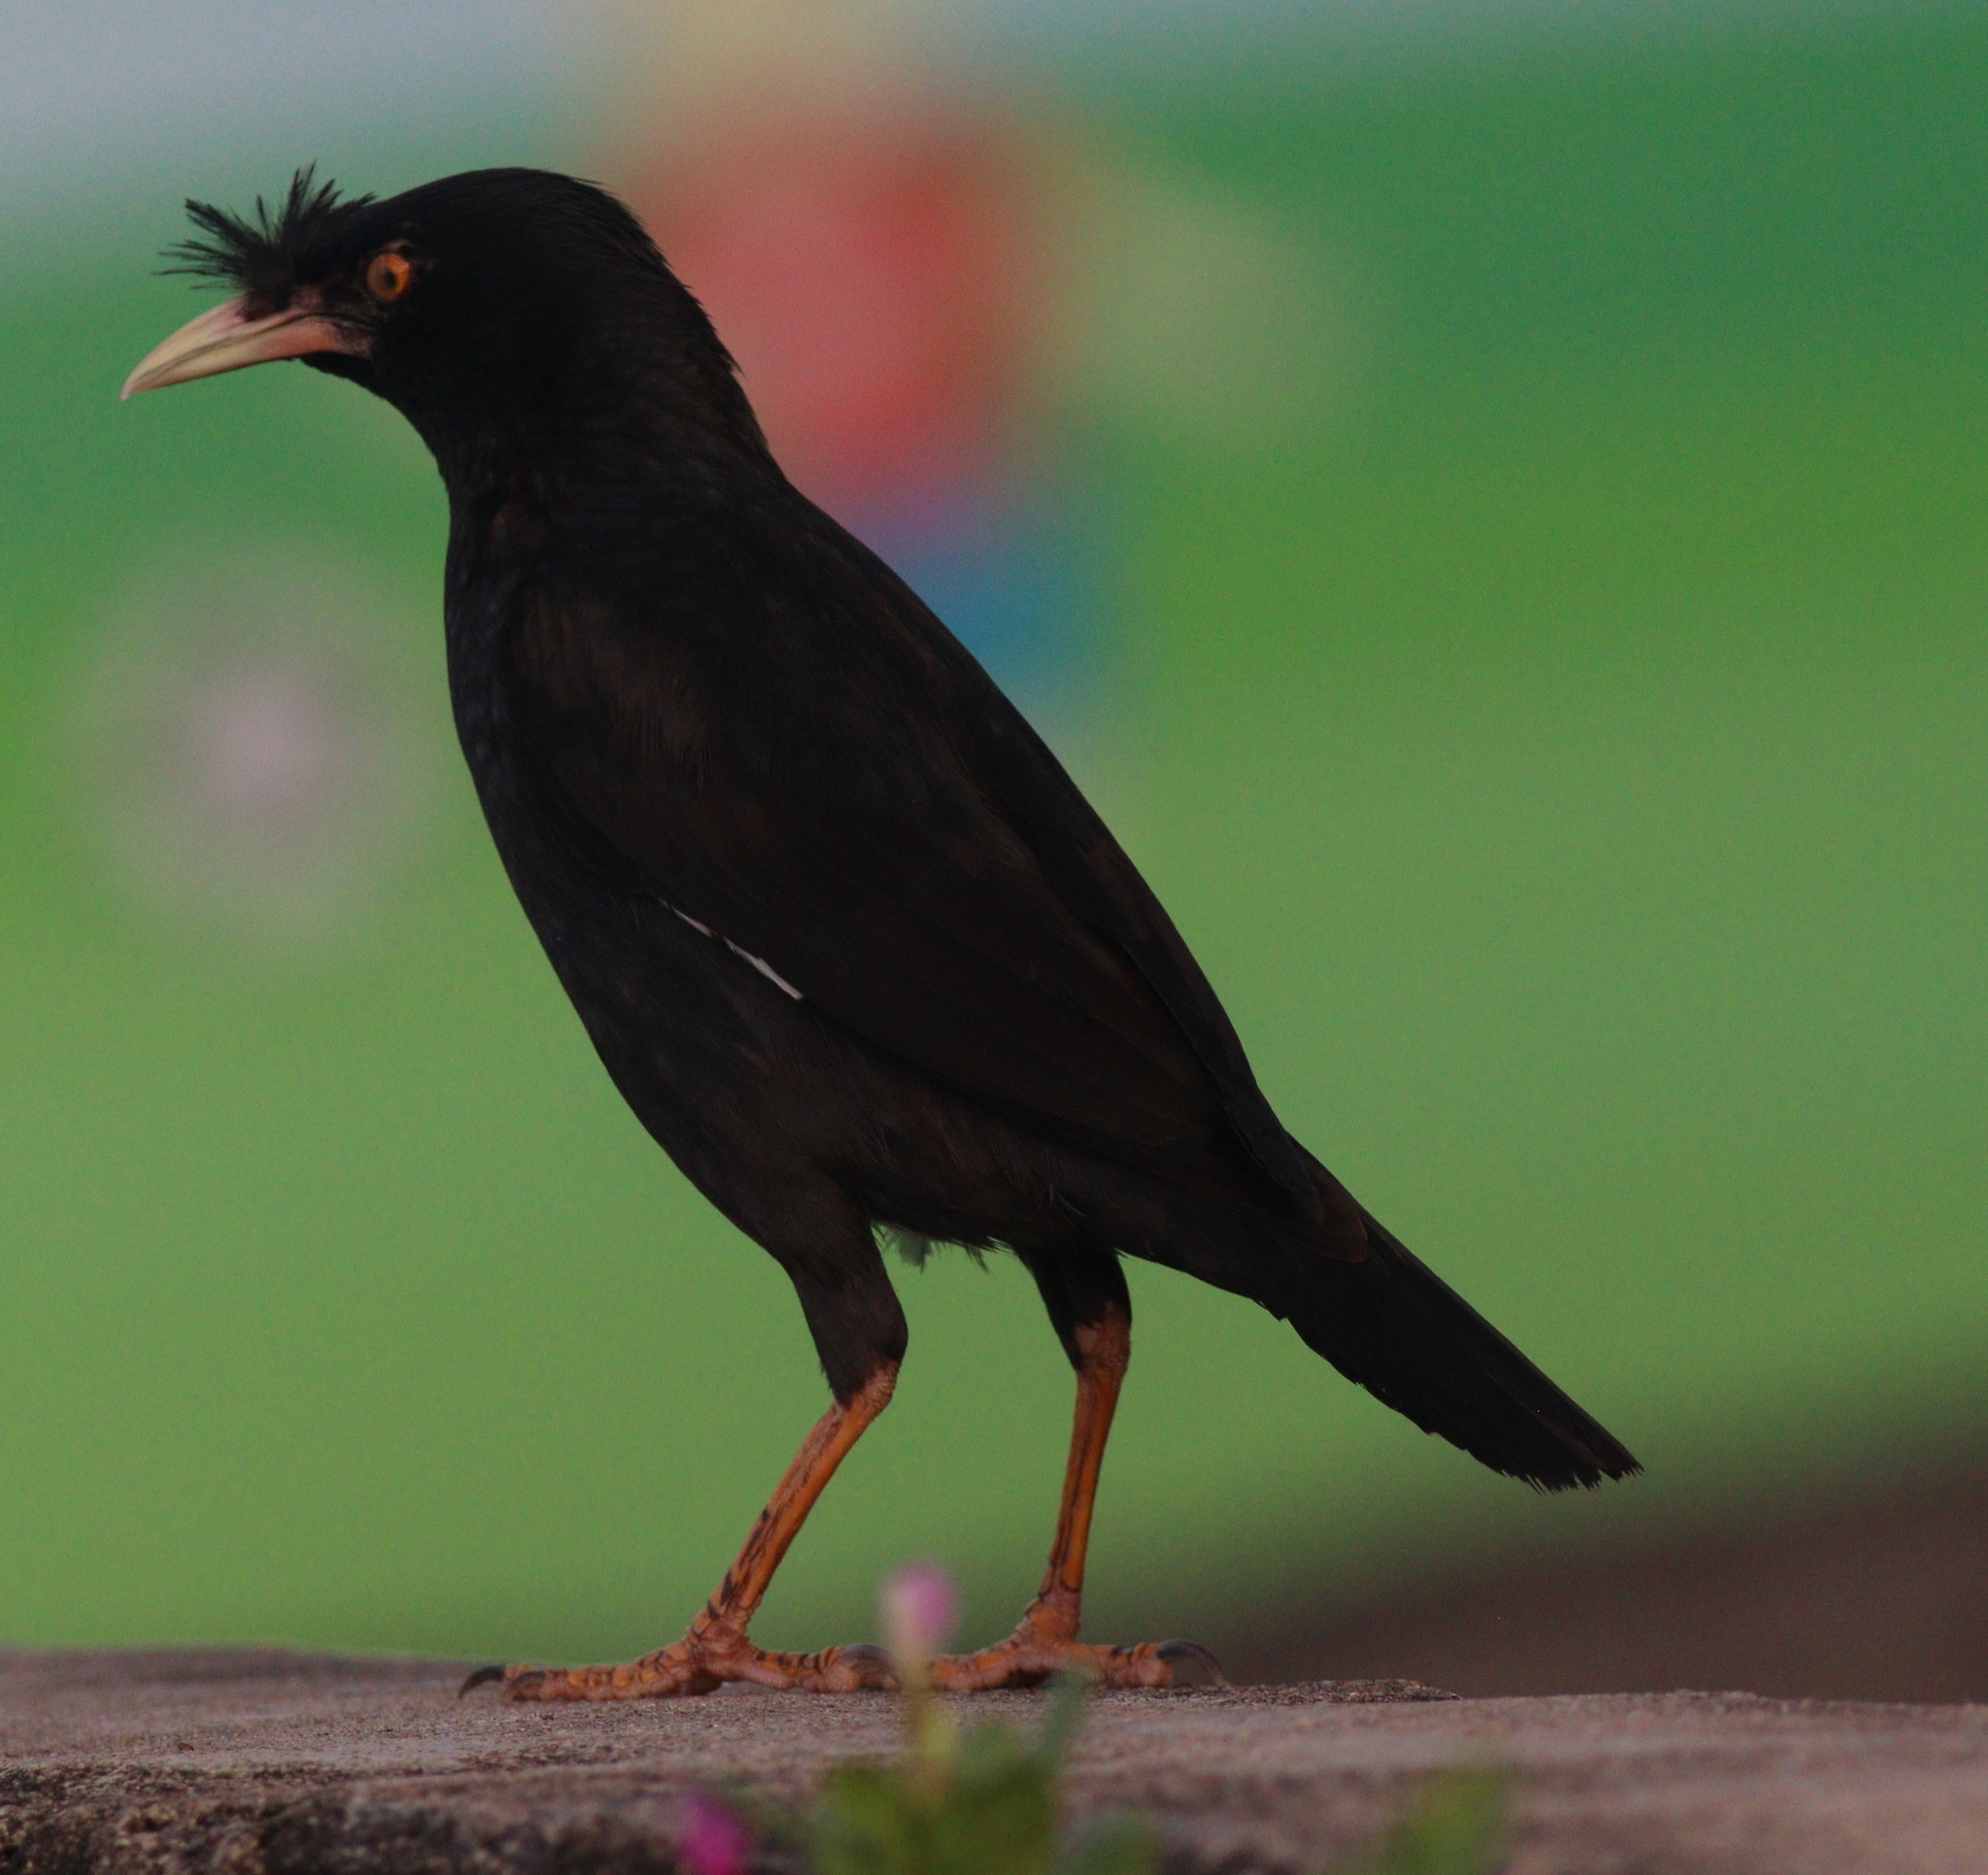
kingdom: Animalia
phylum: Chordata
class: Aves
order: Passeriformes
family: Sturnidae
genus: Acridotheres
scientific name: Acridotheres cristatellus
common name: Crested myna
